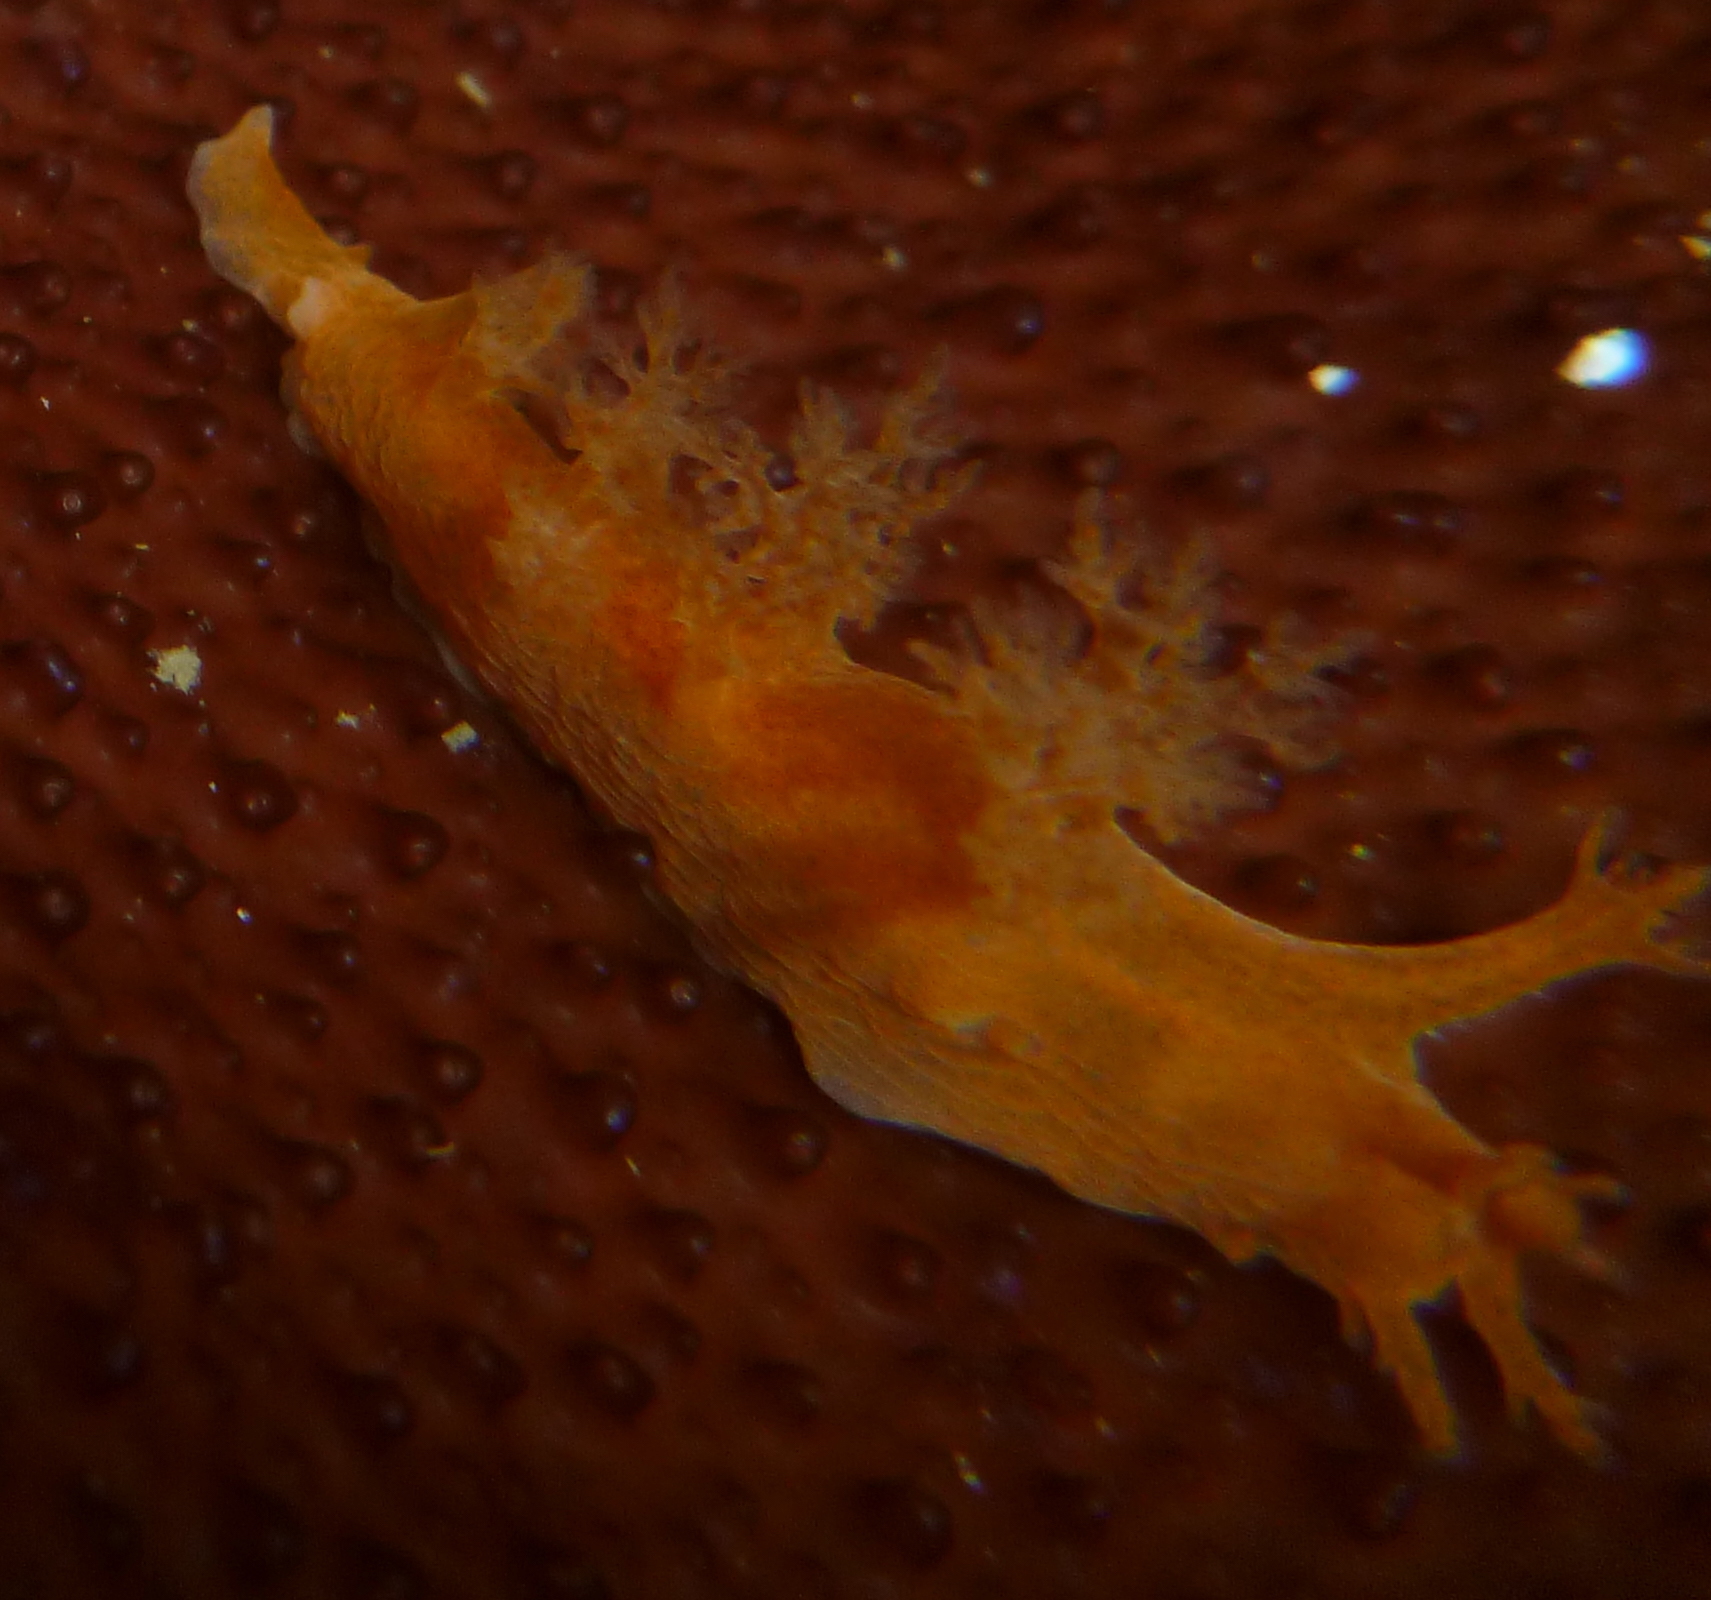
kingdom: Animalia
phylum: Mollusca
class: Gastropoda
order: Nudibranchia
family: Dendronotidae
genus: Dendronotus
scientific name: Dendronotus subramosus
